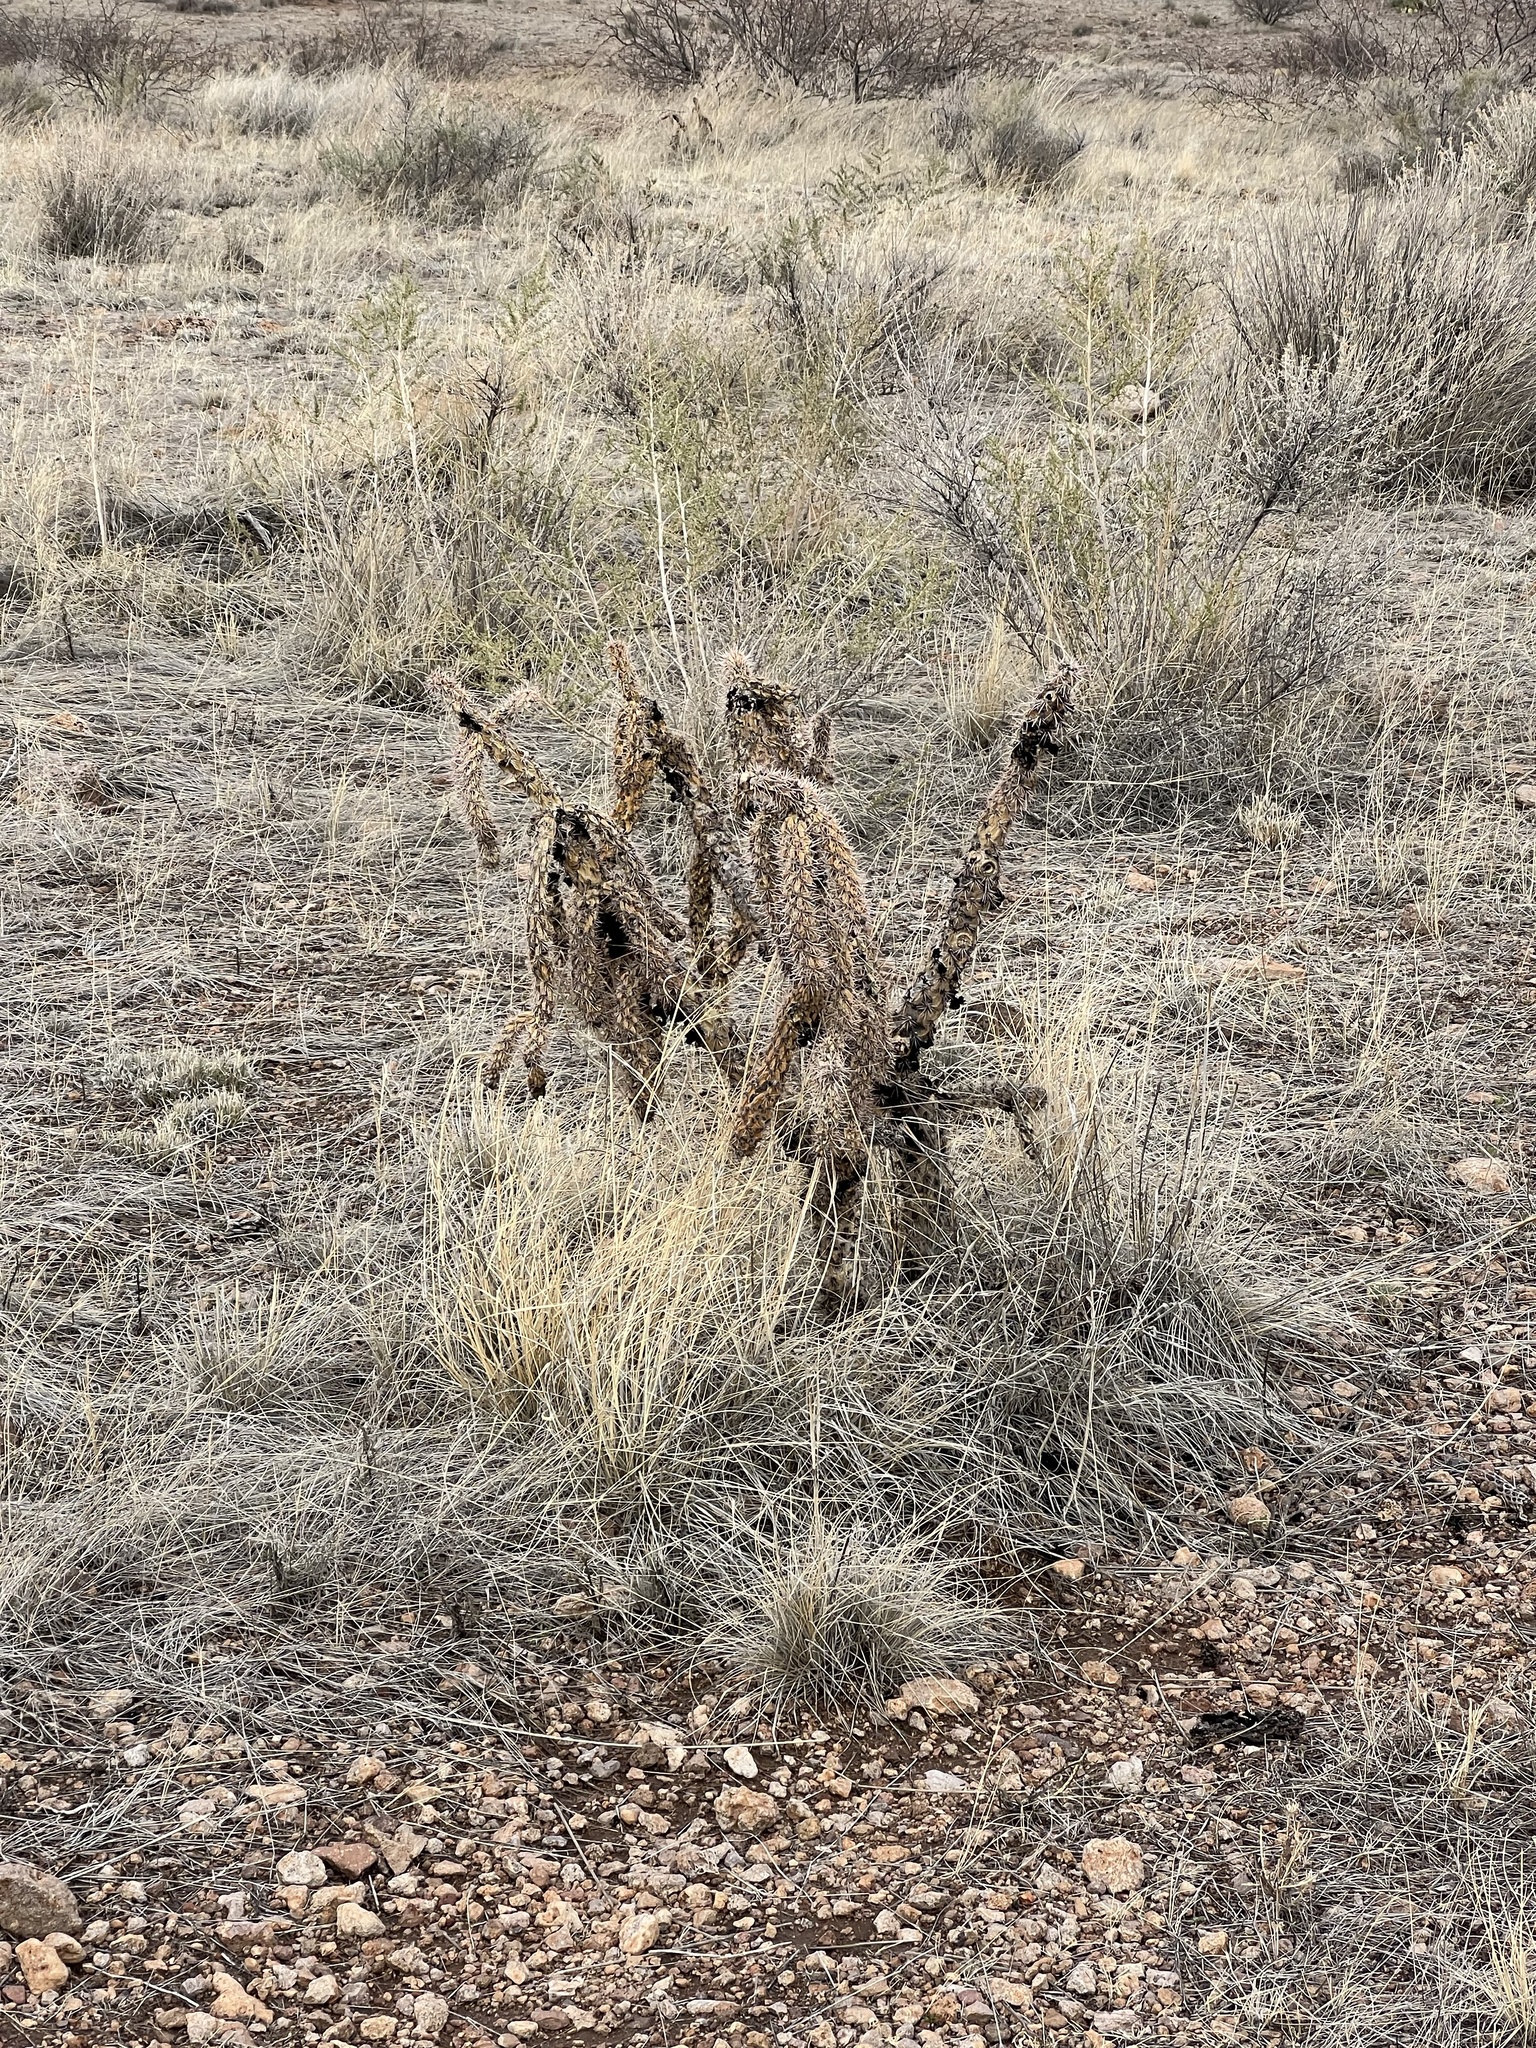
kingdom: Plantae
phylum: Tracheophyta
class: Magnoliopsida
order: Caryophyllales
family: Cactaceae
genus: Cylindropuntia
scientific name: Cylindropuntia imbricata
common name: Candelabrum cactus
